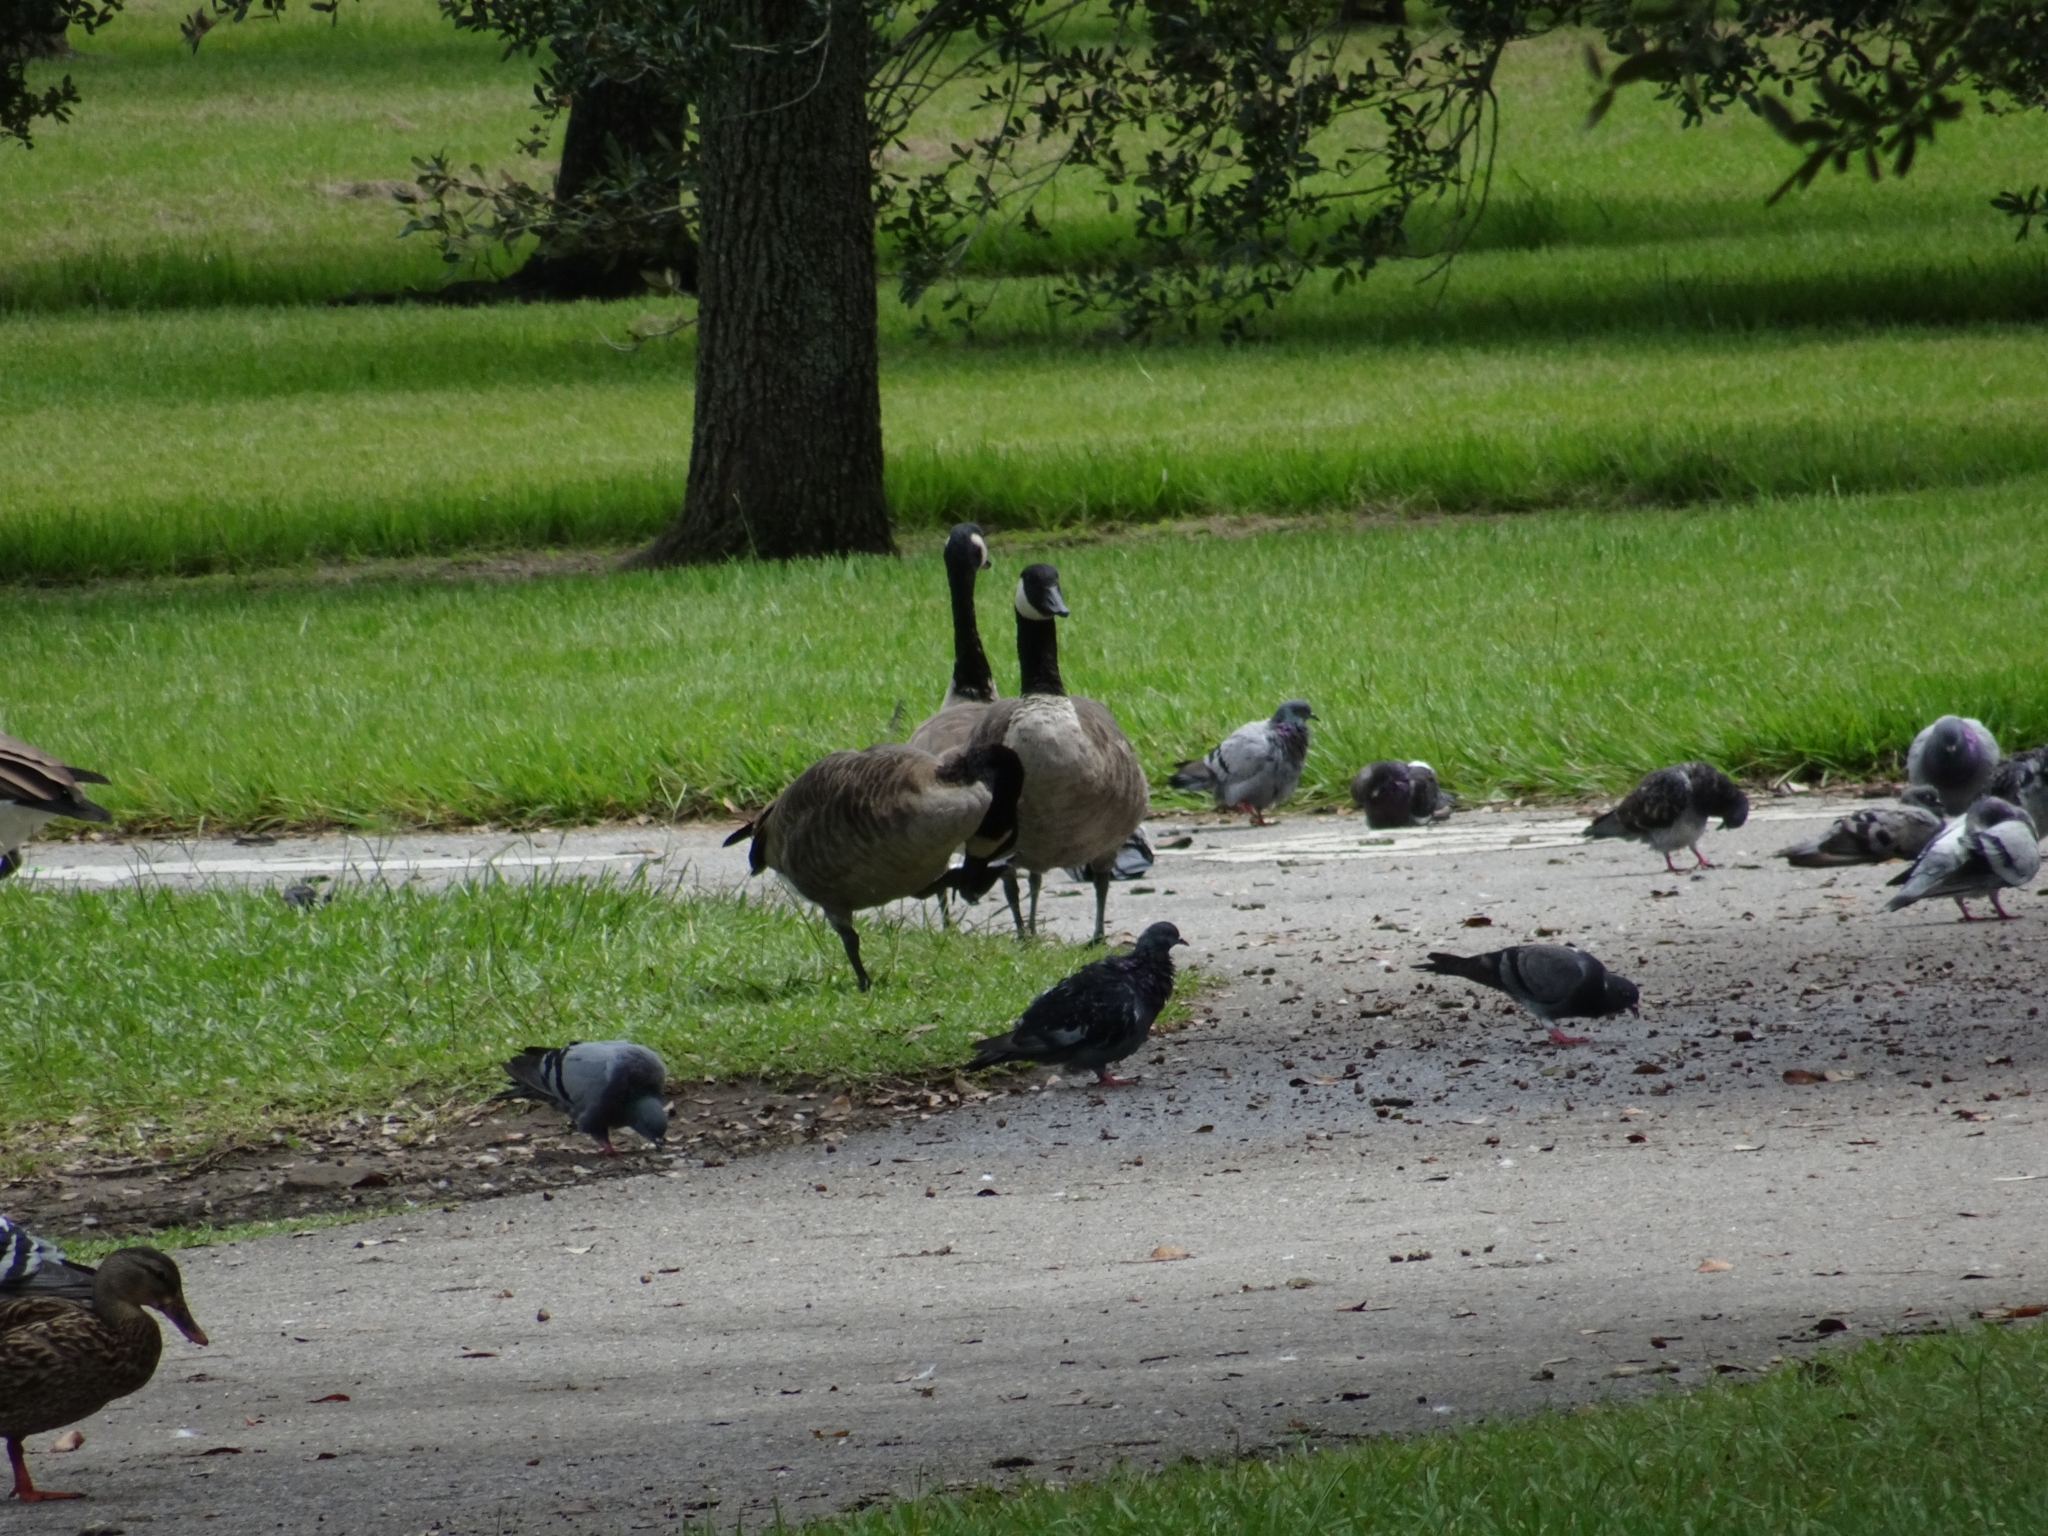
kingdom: Animalia
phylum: Chordata
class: Aves
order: Anseriformes
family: Anatidae
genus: Branta
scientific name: Branta canadensis
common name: Canada goose
